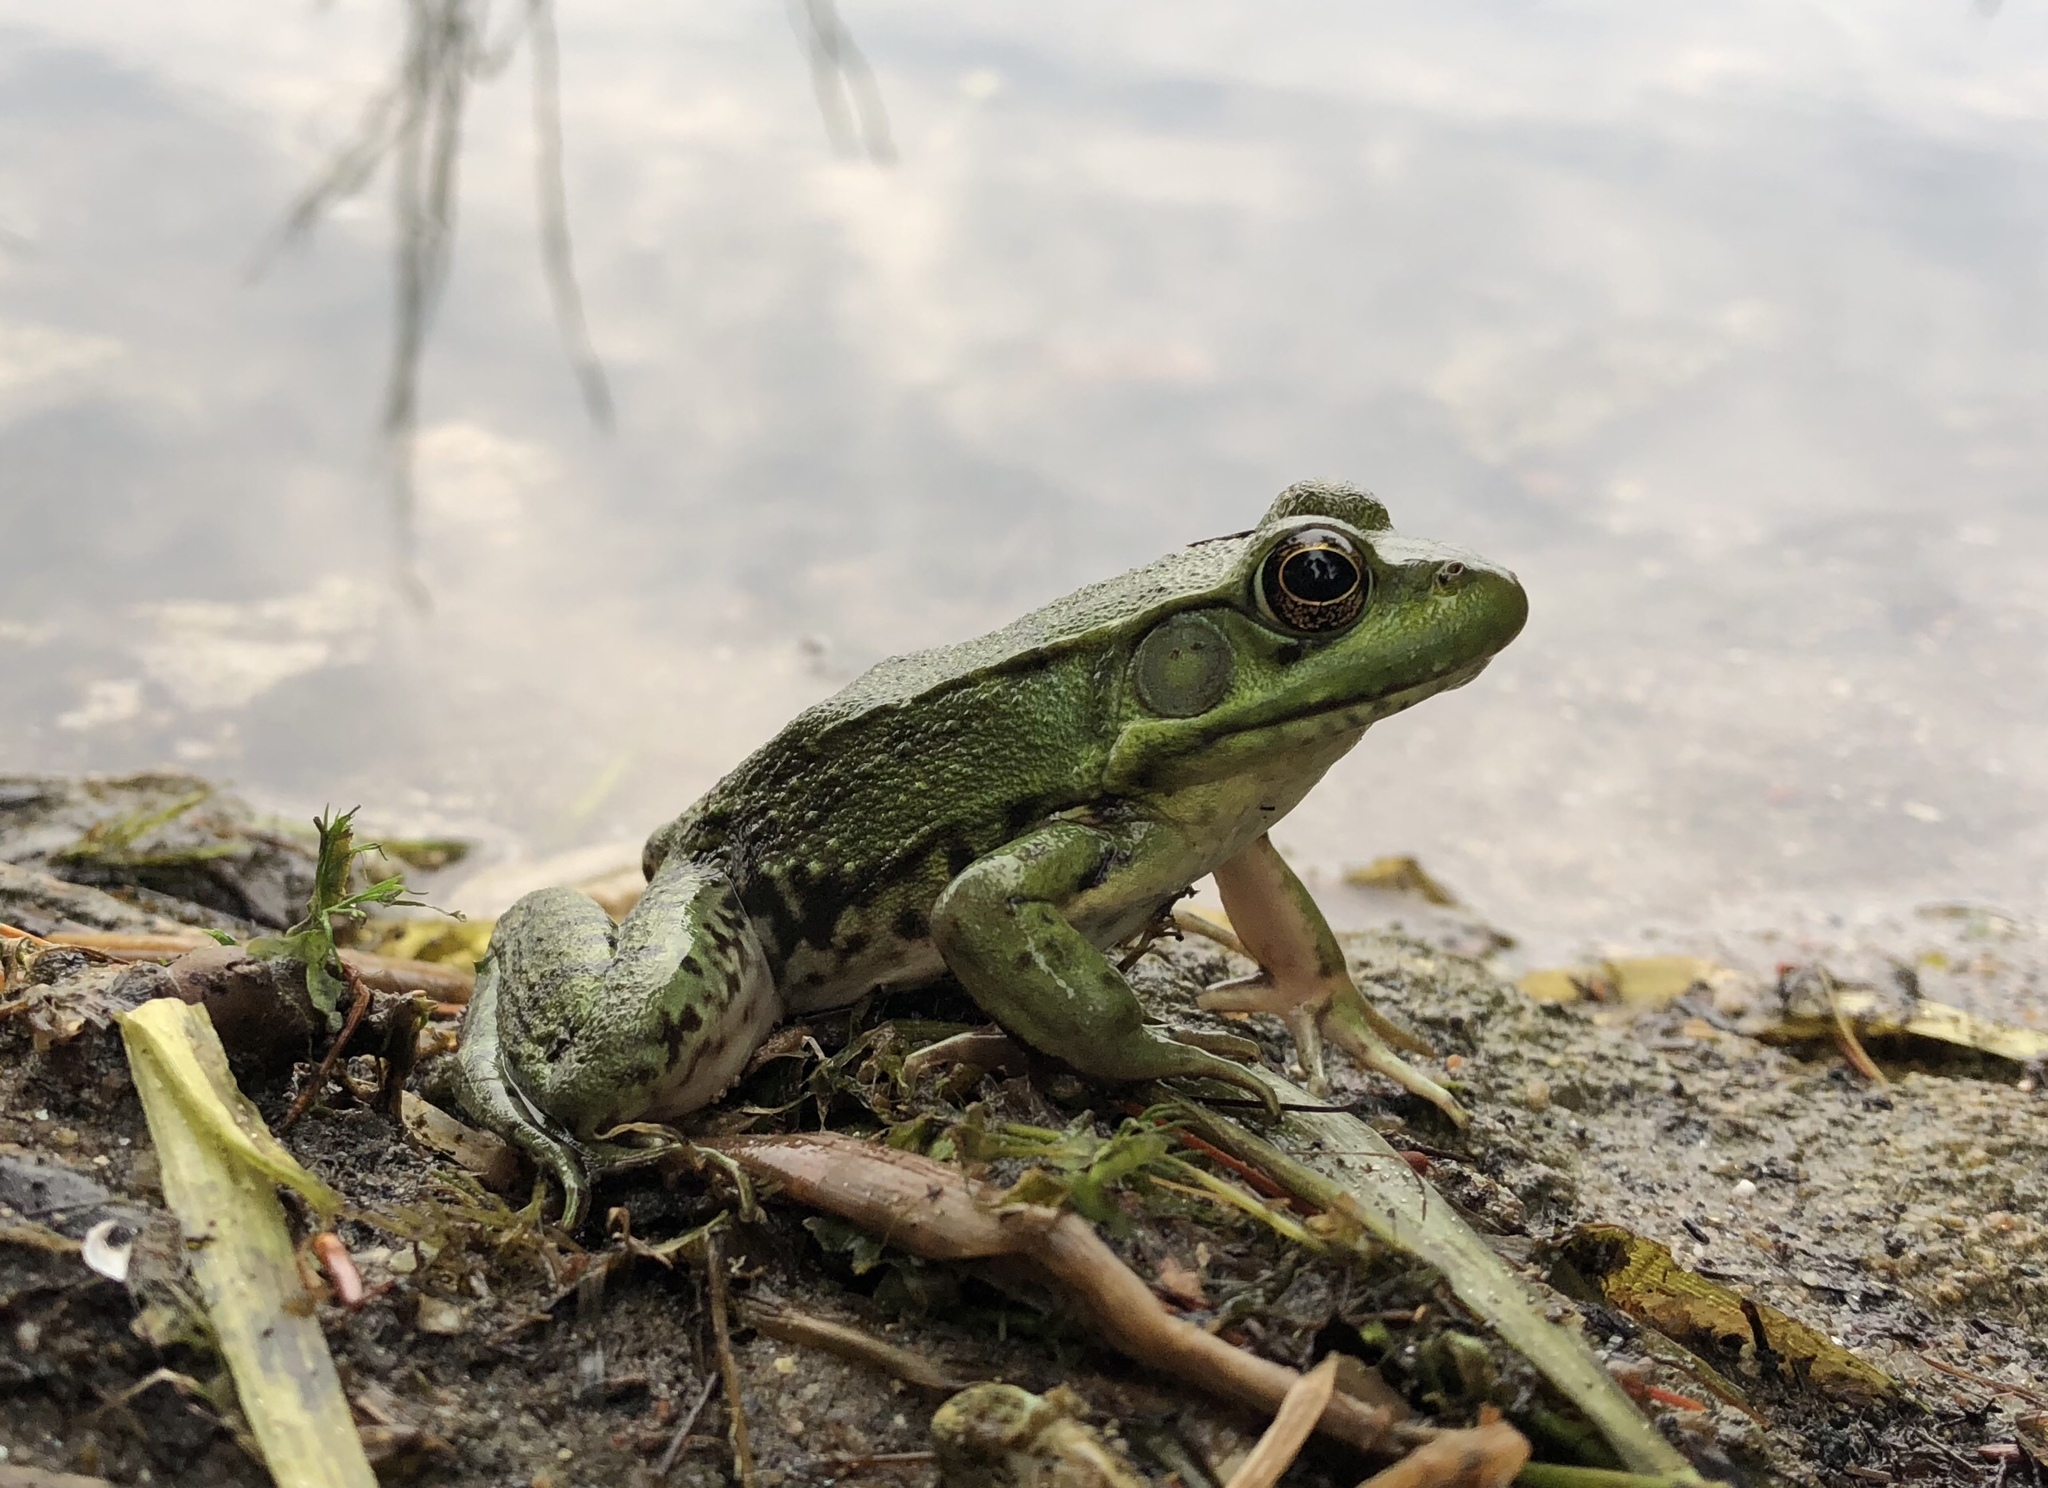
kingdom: Animalia
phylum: Chordata
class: Amphibia
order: Anura
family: Ranidae
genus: Lithobates
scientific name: Lithobates clamitans
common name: Green frog
